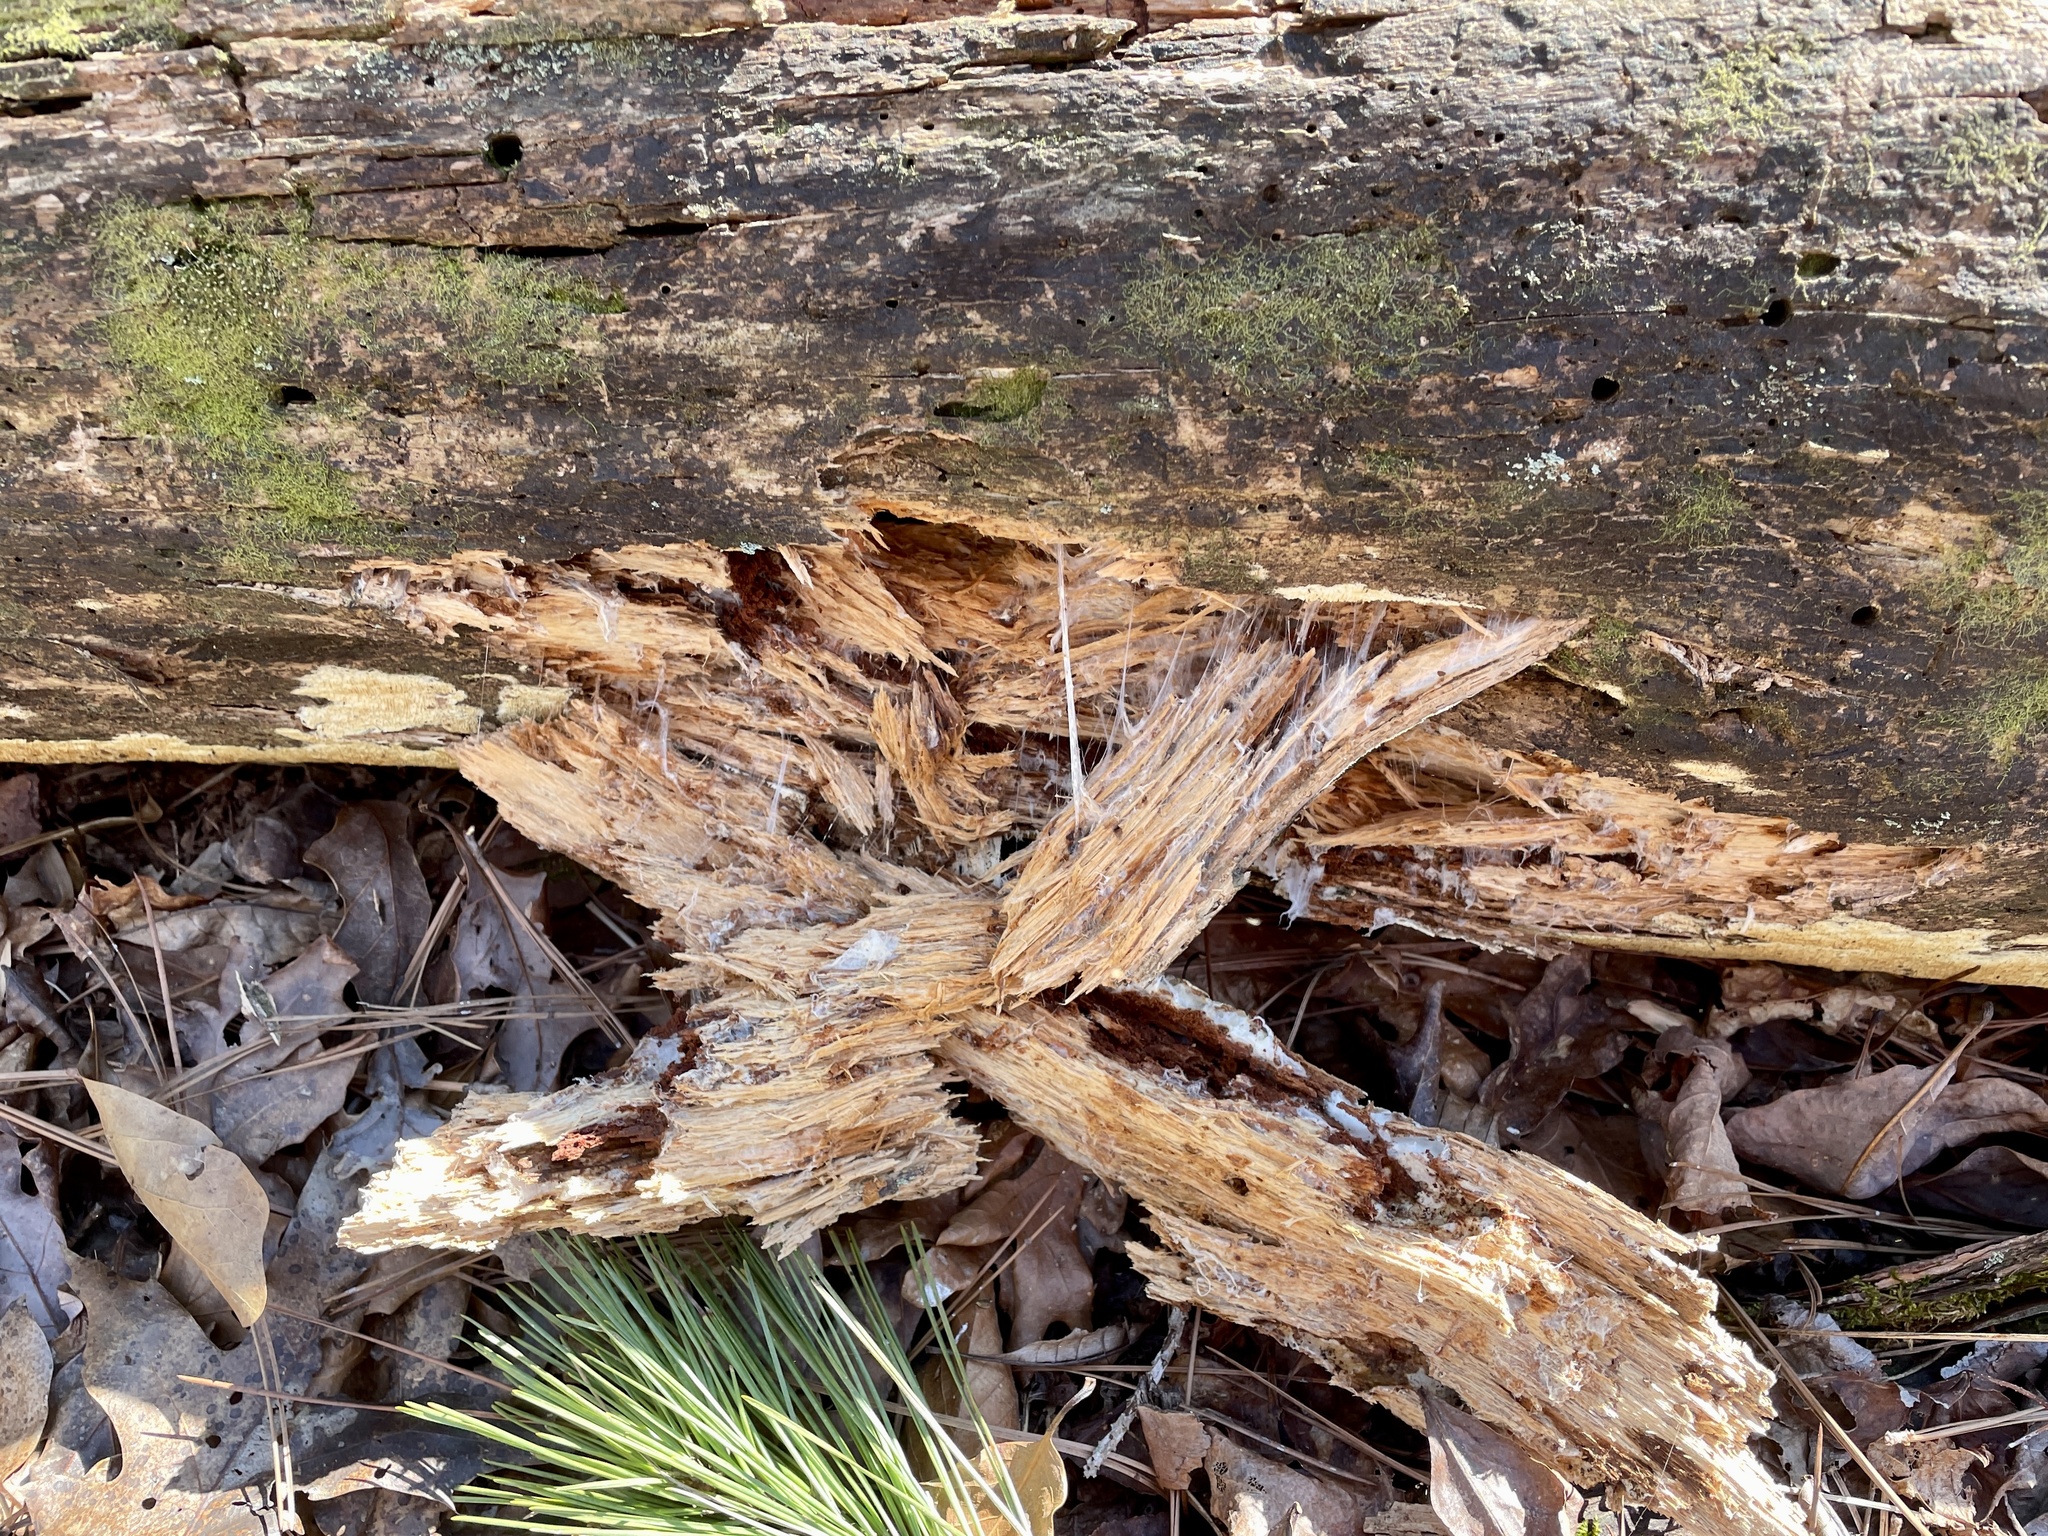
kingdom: Fungi
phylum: Basidiomycota
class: Agaricomycetes
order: Russulales
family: Bondarzewiaceae
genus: Wrightoporia
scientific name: Wrightoporia austrosinensis
